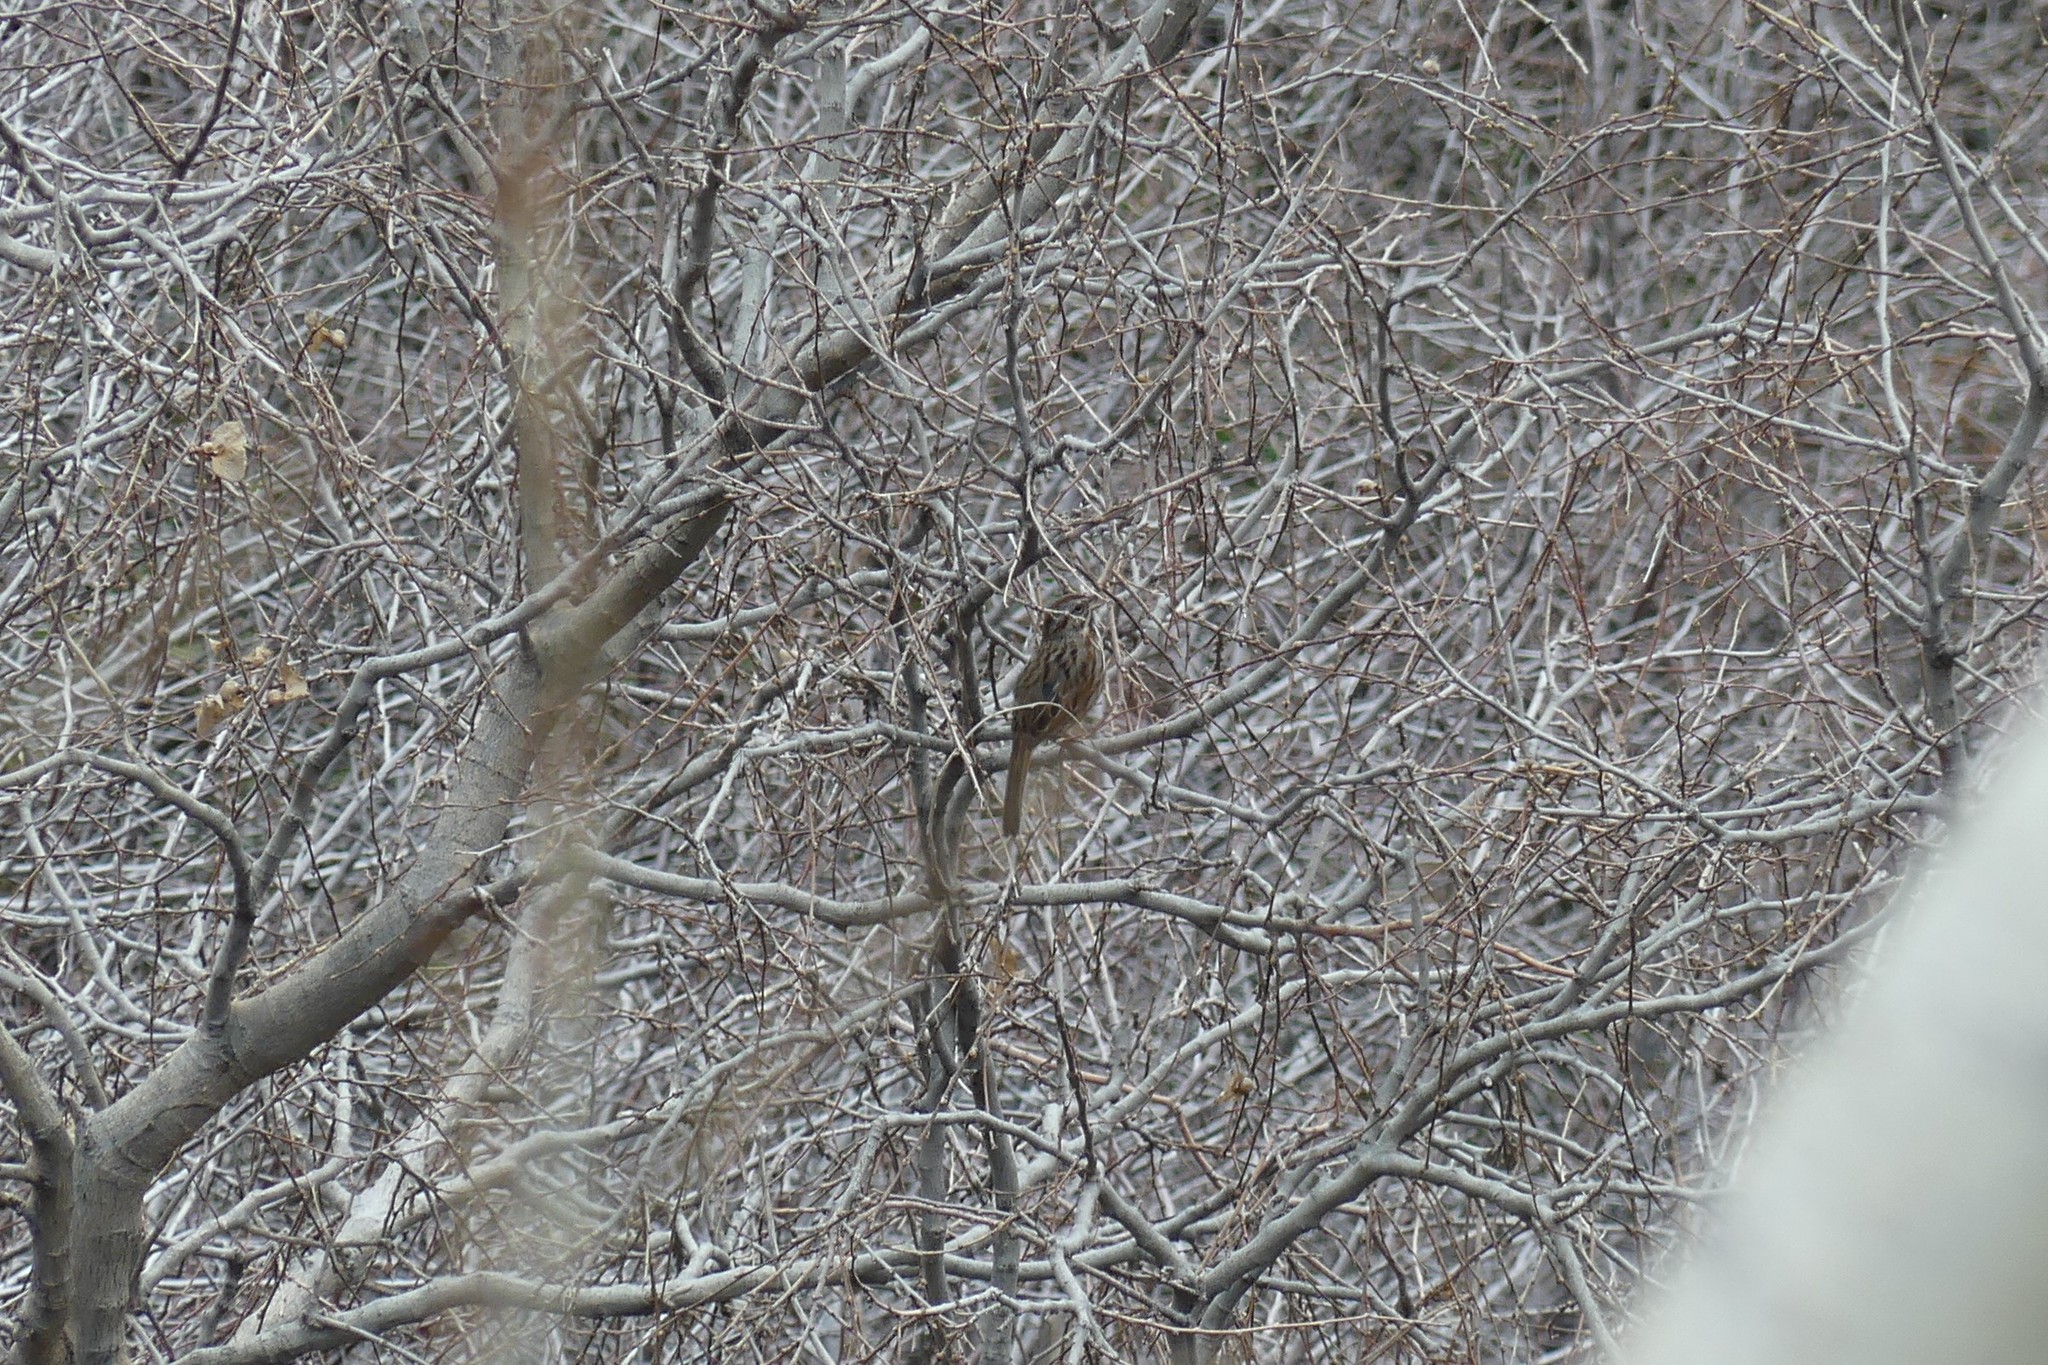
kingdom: Animalia
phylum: Chordata
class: Aves
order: Passeriformes
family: Passerellidae
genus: Melospiza
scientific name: Melospiza melodia
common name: Song sparrow
